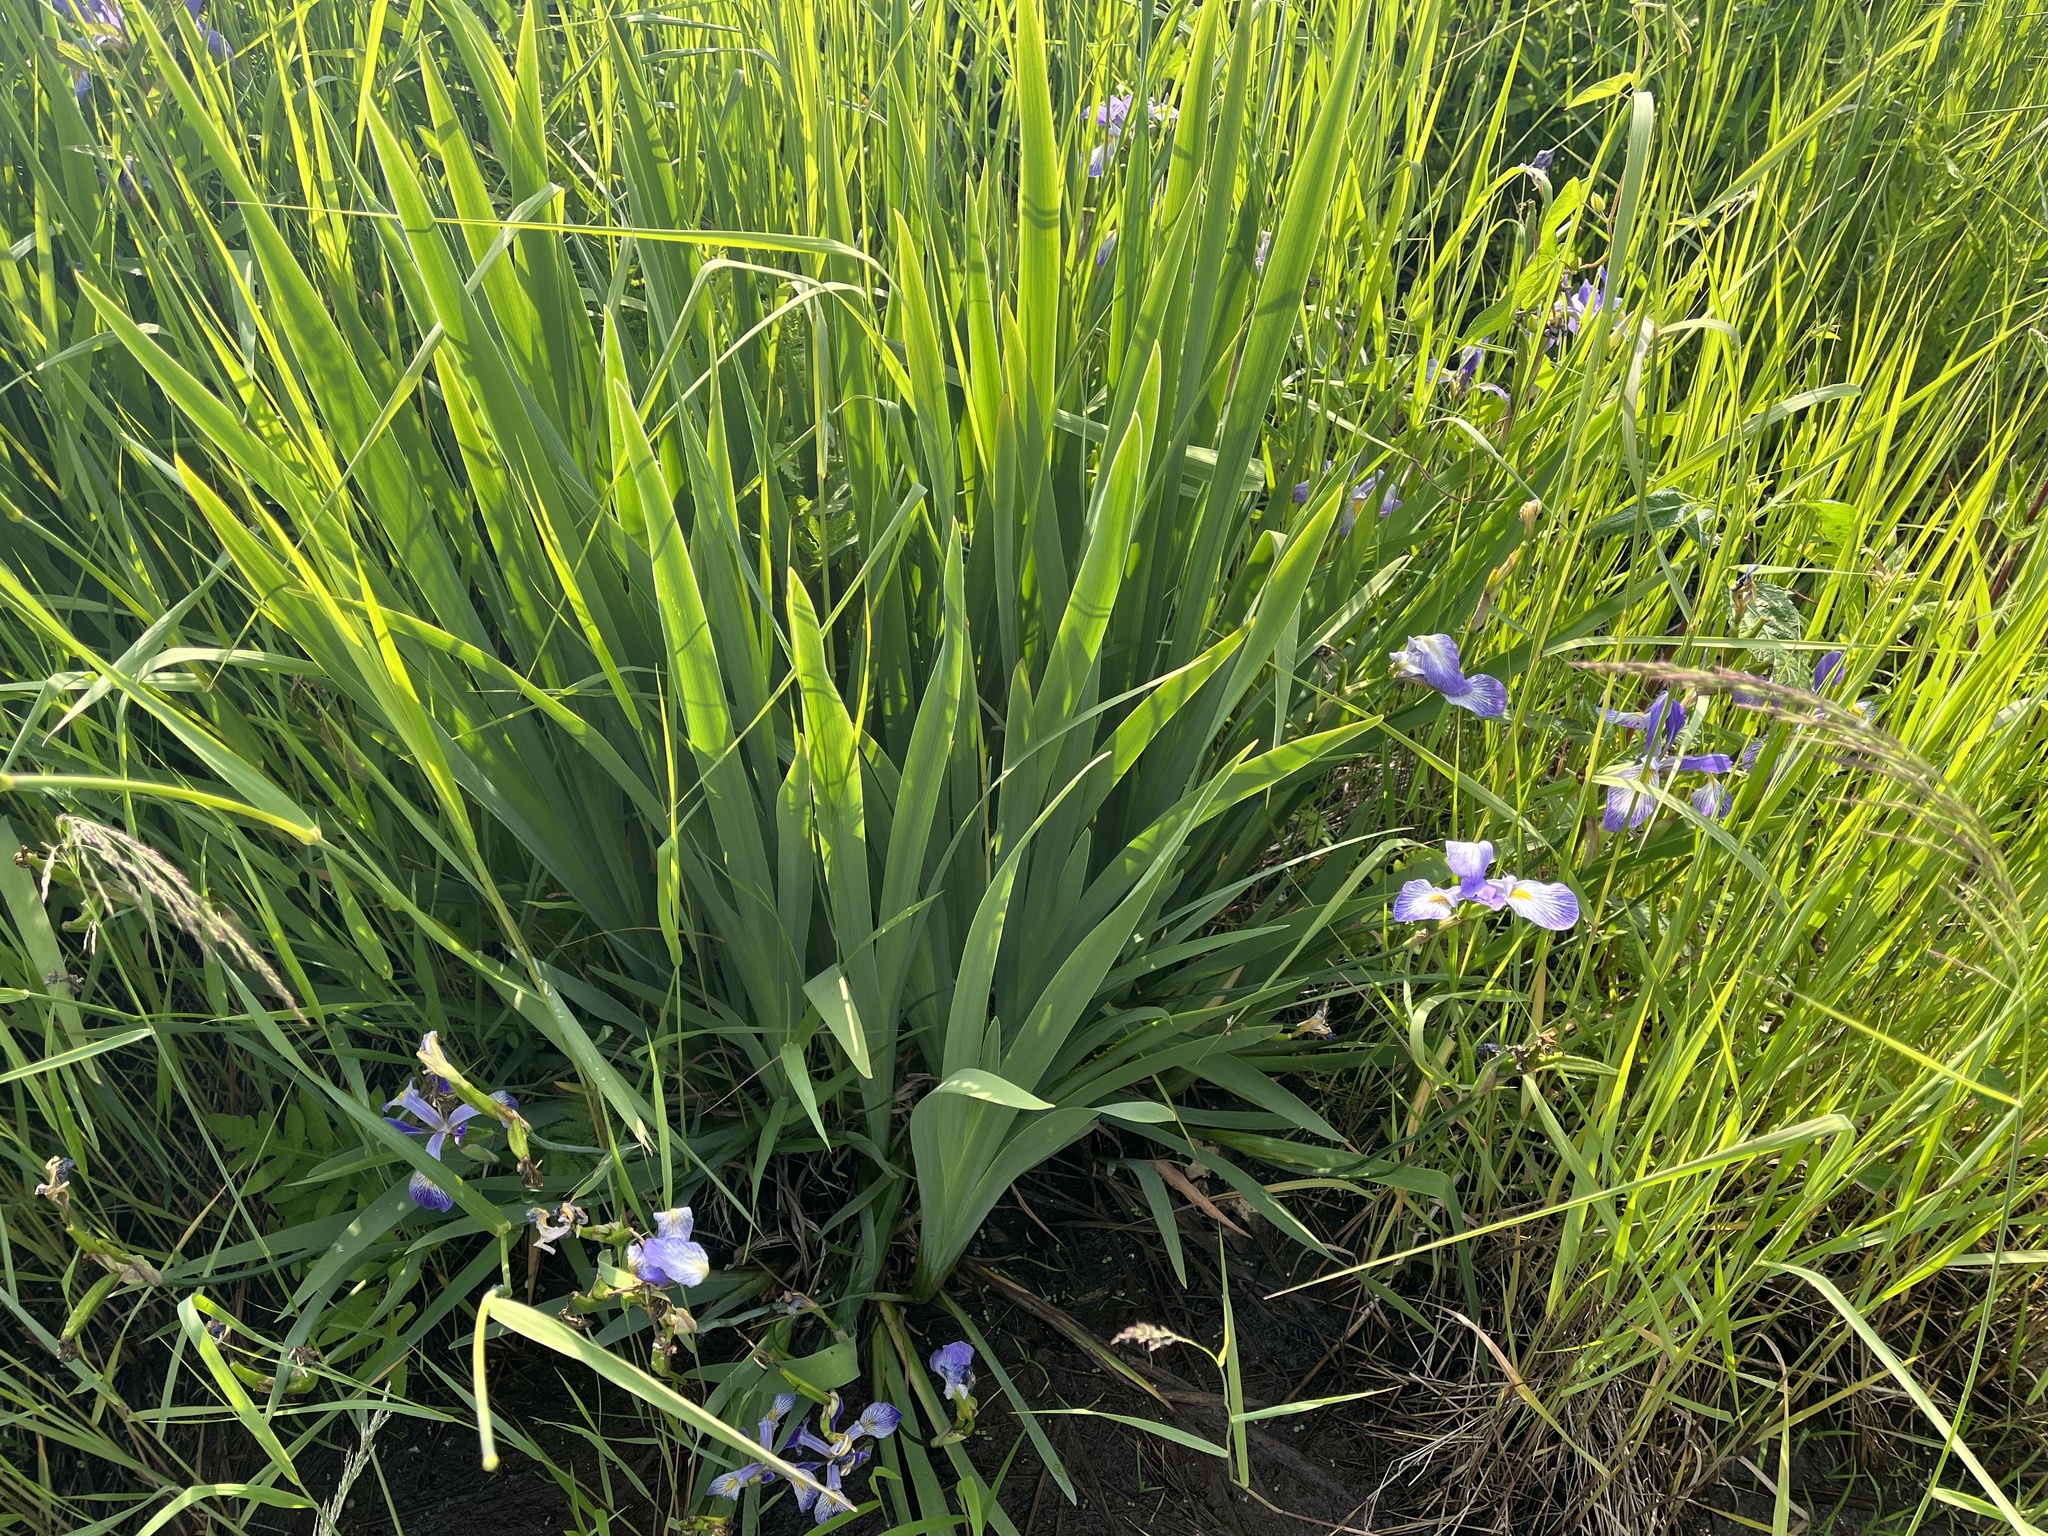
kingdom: Plantae
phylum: Tracheophyta
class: Liliopsida
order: Asparagales
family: Iridaceae
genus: Iris
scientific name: Iris virginica
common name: Southern blue flag
